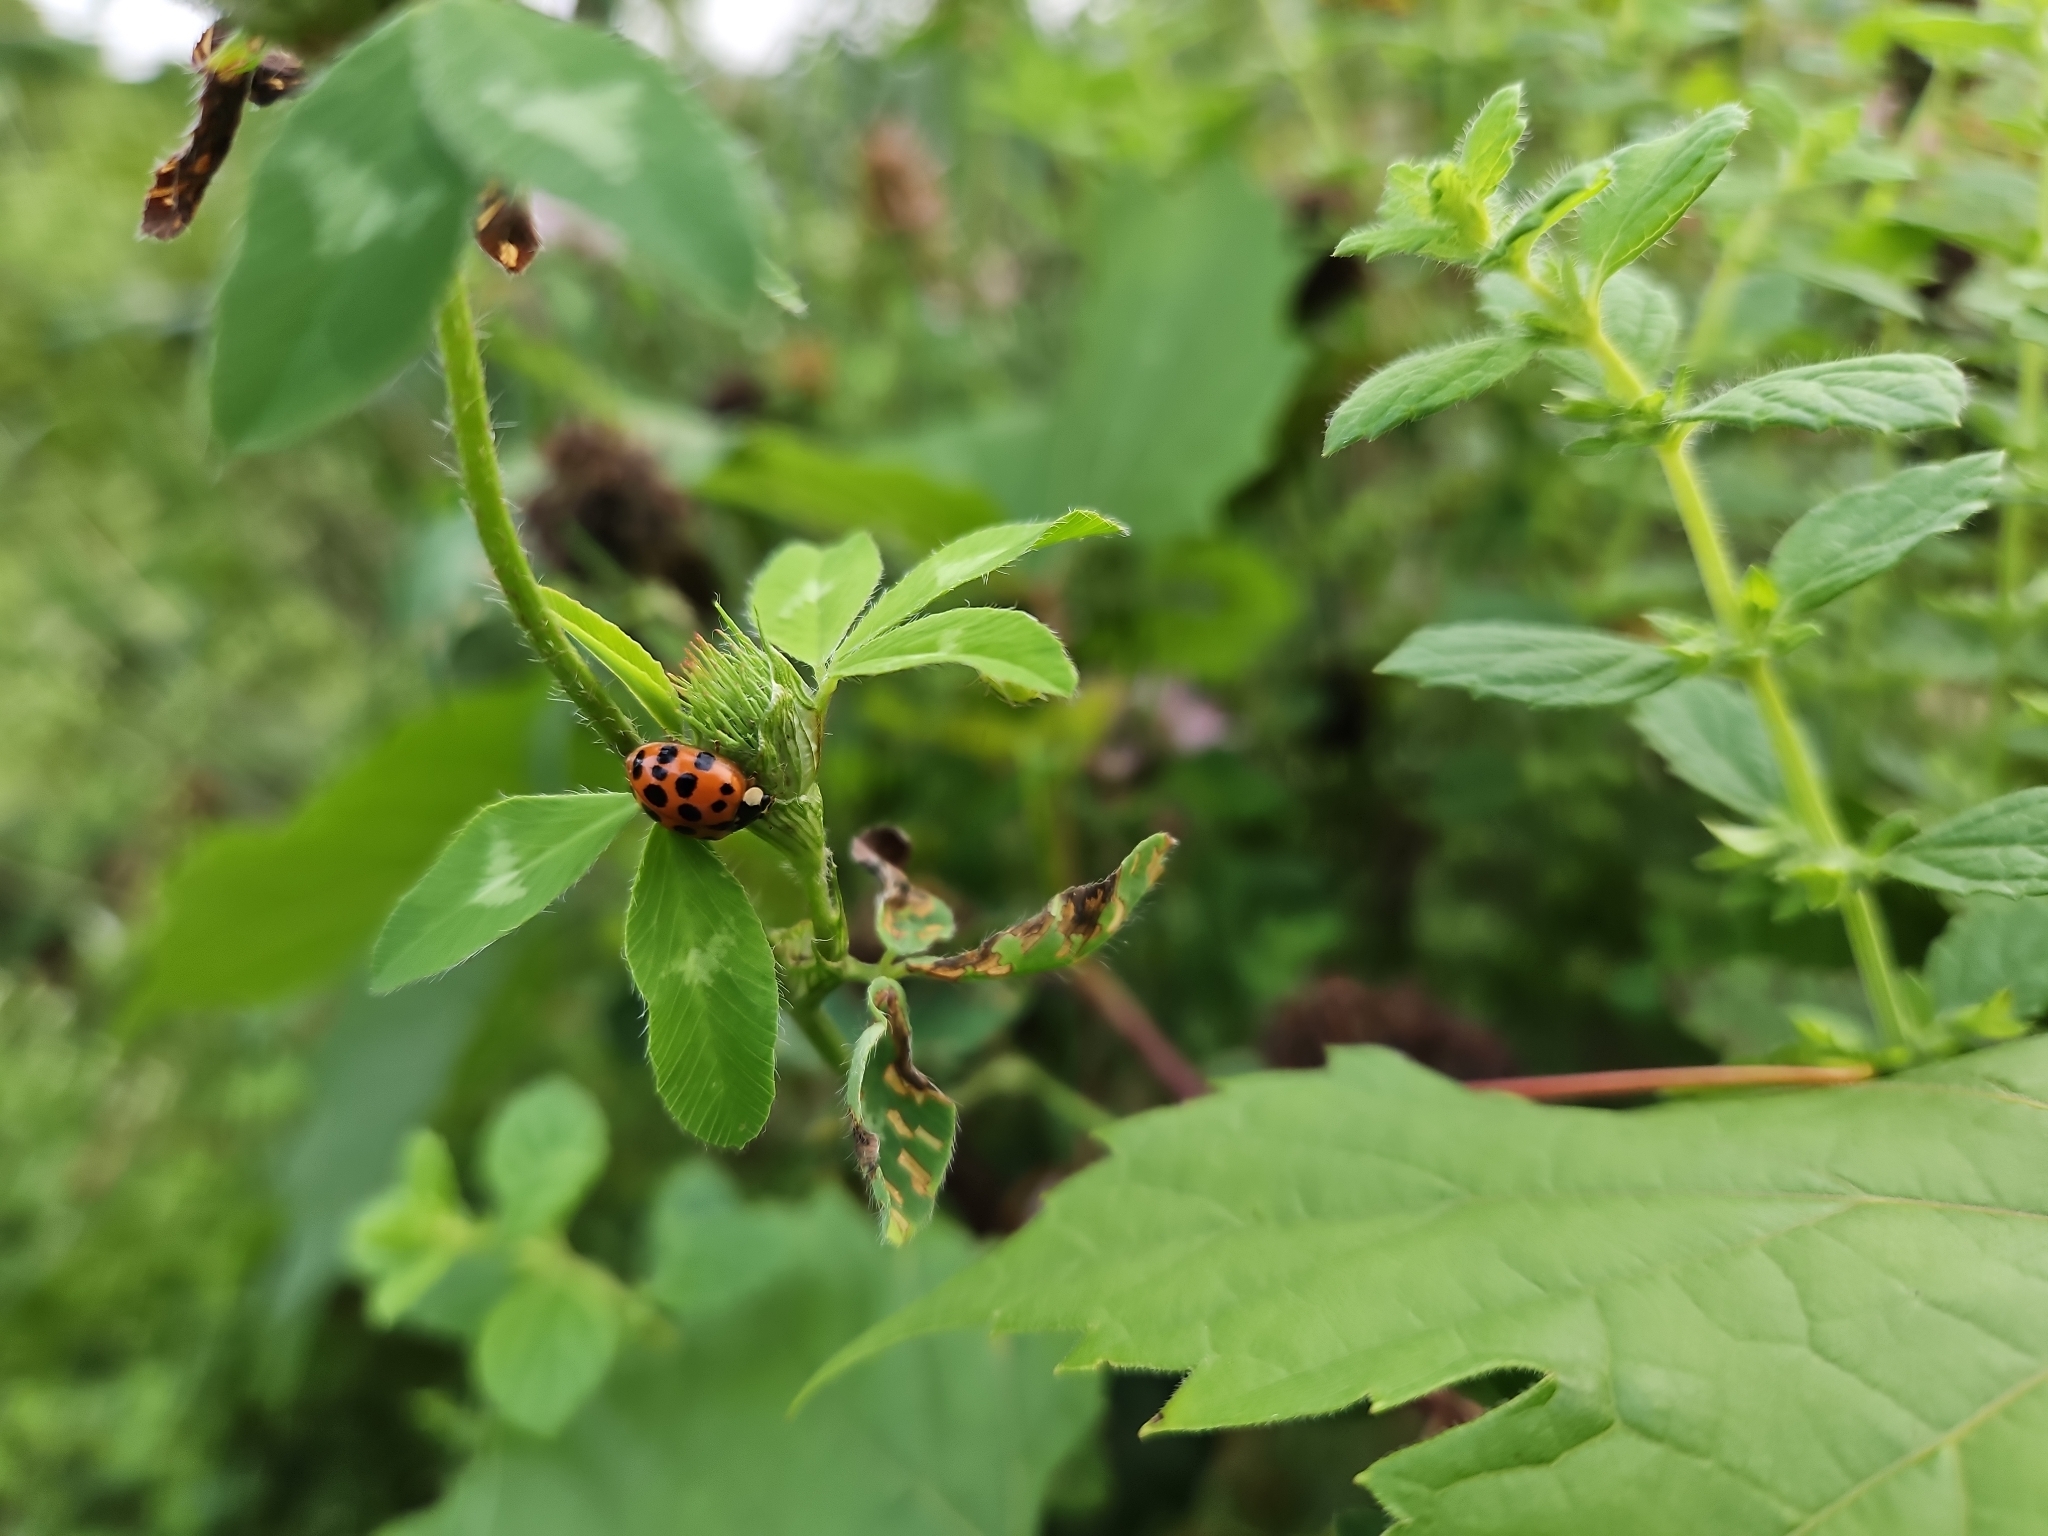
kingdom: Animalia
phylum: Arthropoda
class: Insecta
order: Coleoptera
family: Coccinellidae
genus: Harmonia
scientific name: Harmonia axyridis
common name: Harlequin ladybird
